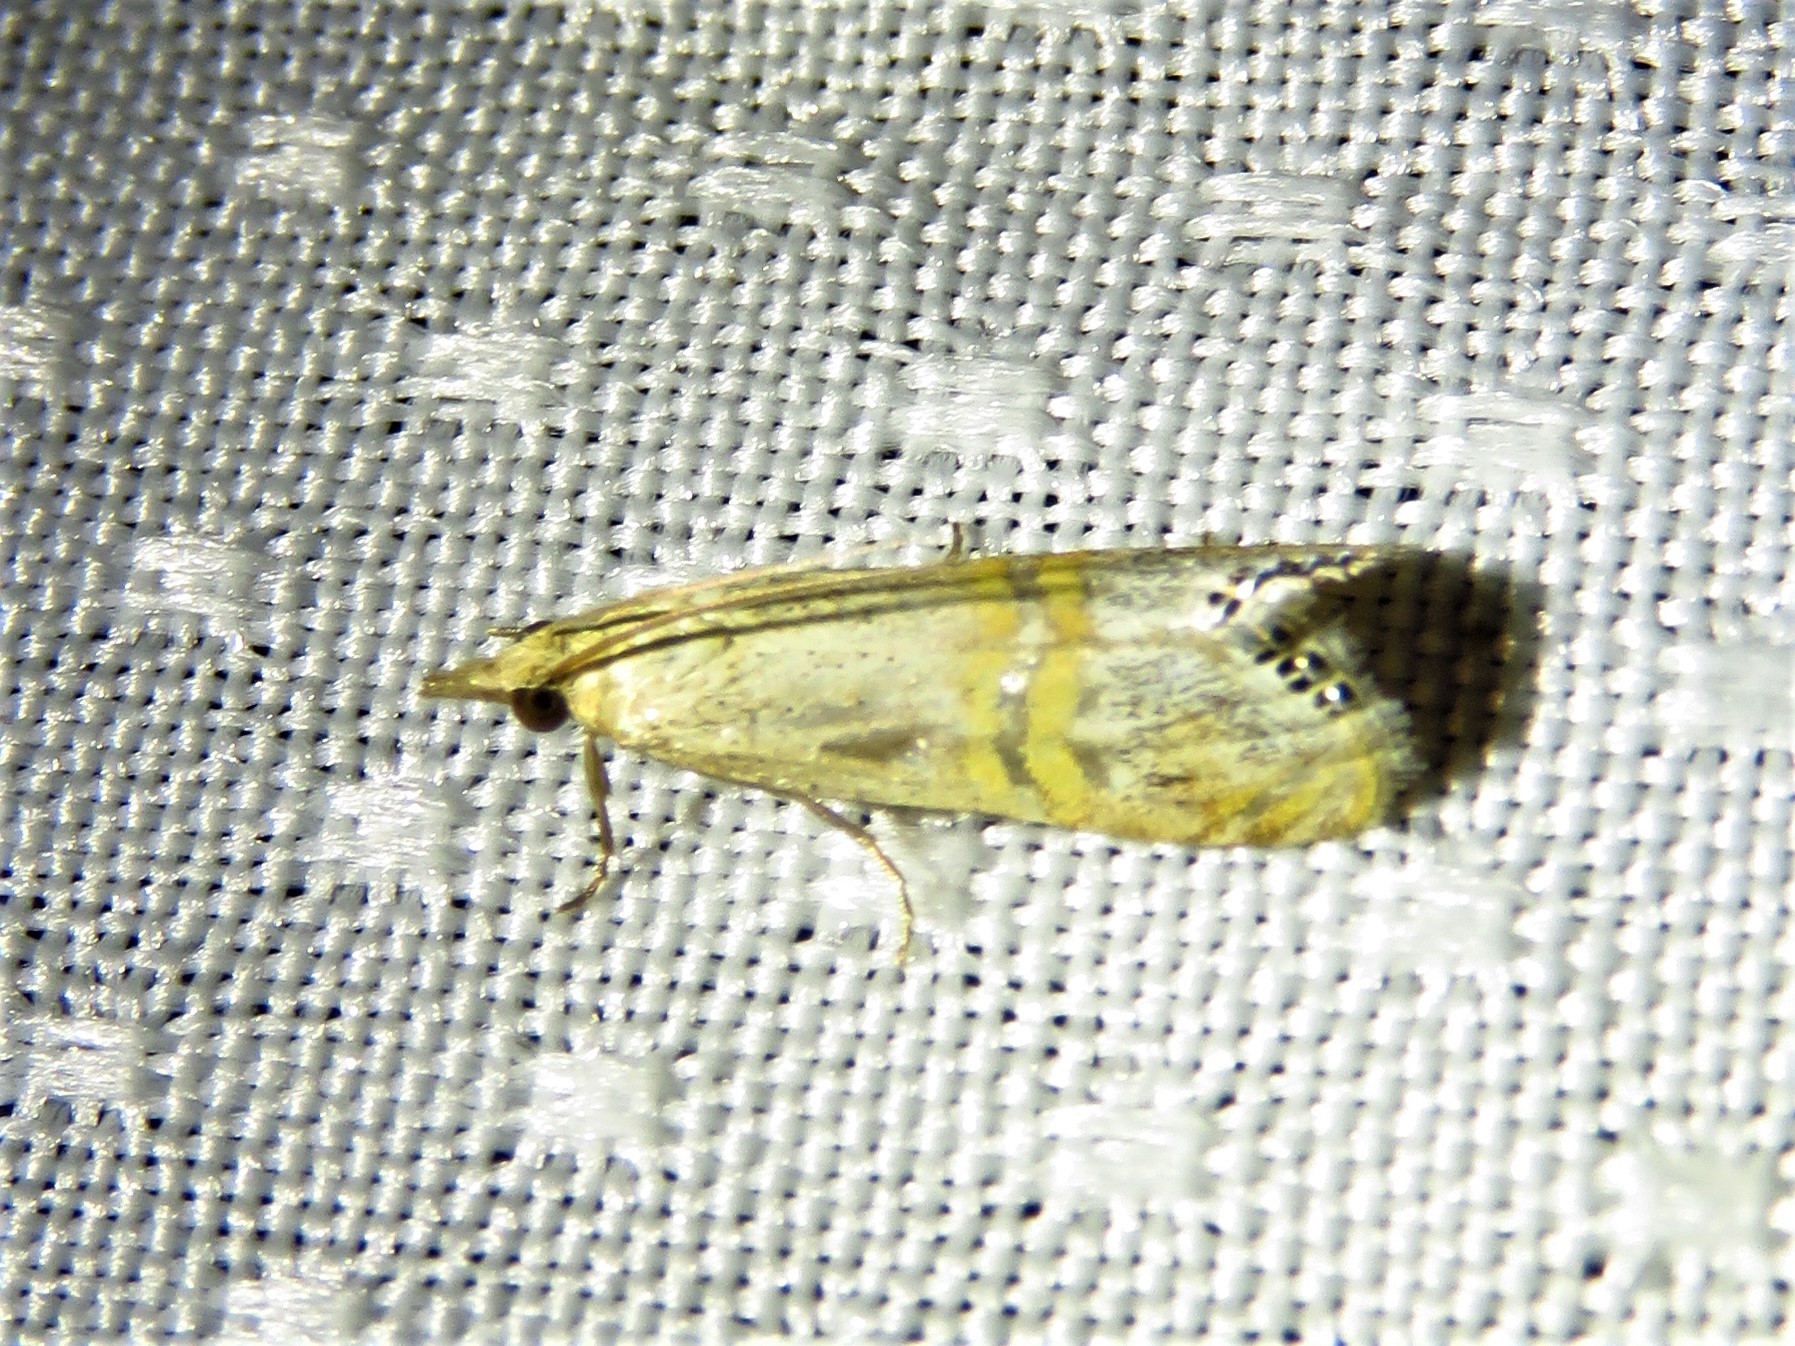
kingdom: Animalia
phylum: Arthropoda
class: Insecta
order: Lepidoptera
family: Crambidae
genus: Euchromius
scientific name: Euchromius ocellea
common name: Necklace veneer moth
